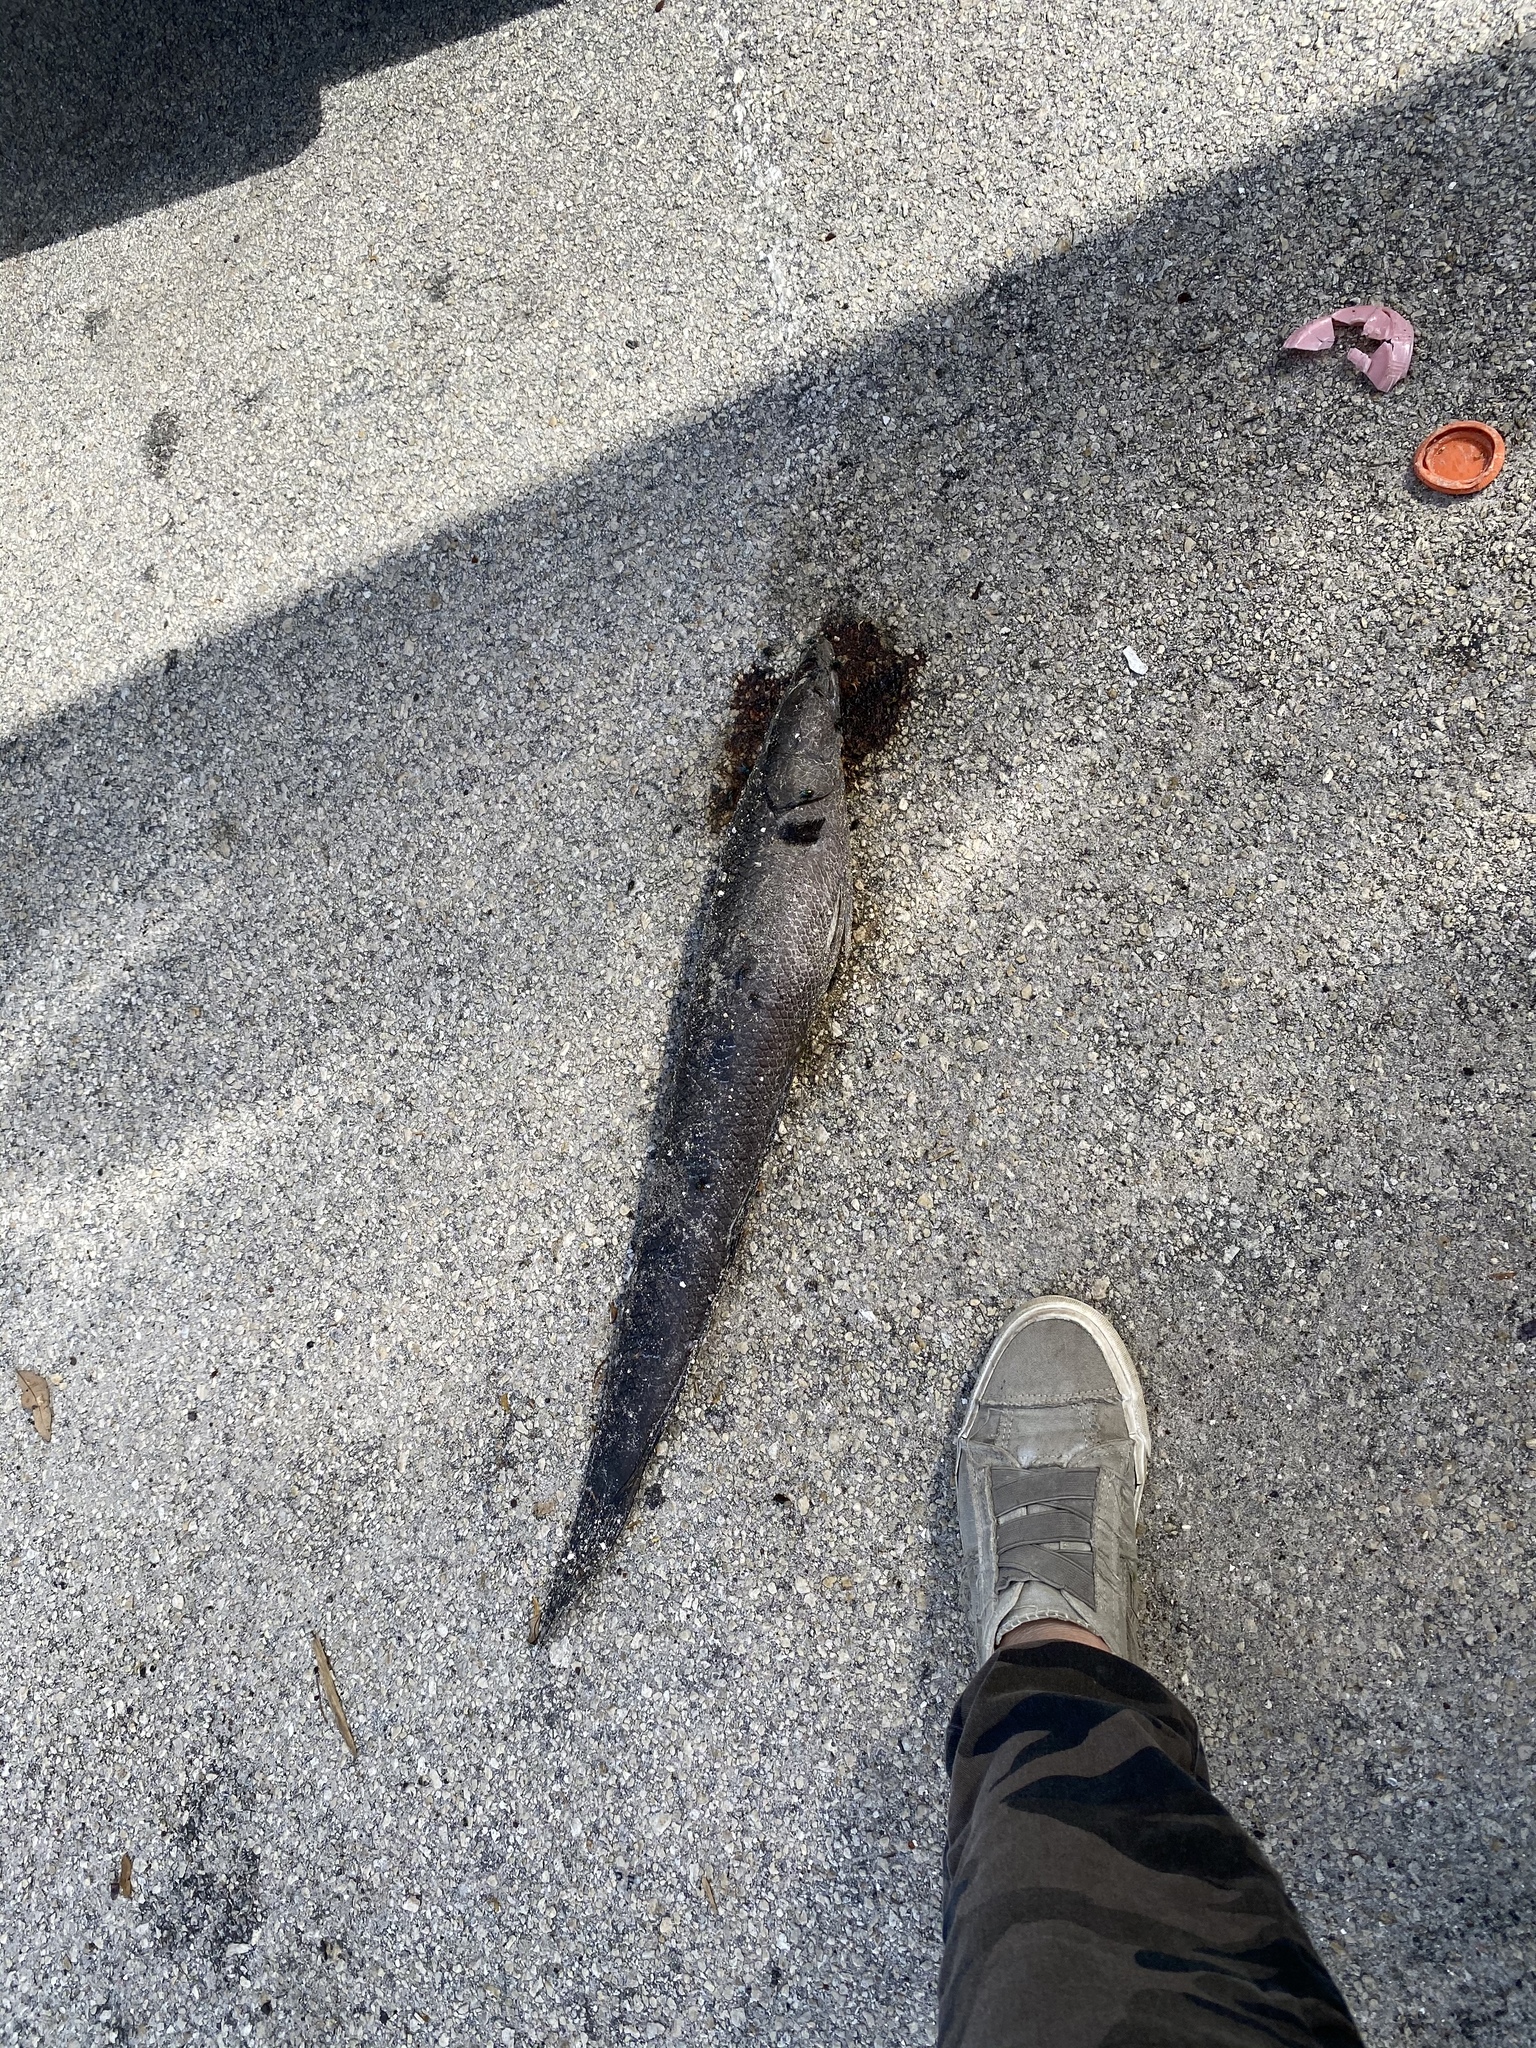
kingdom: Animalia
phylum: Chordata
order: Perciformes
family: Channidae
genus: Channa
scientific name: Channa marulius
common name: Giant snakehead
